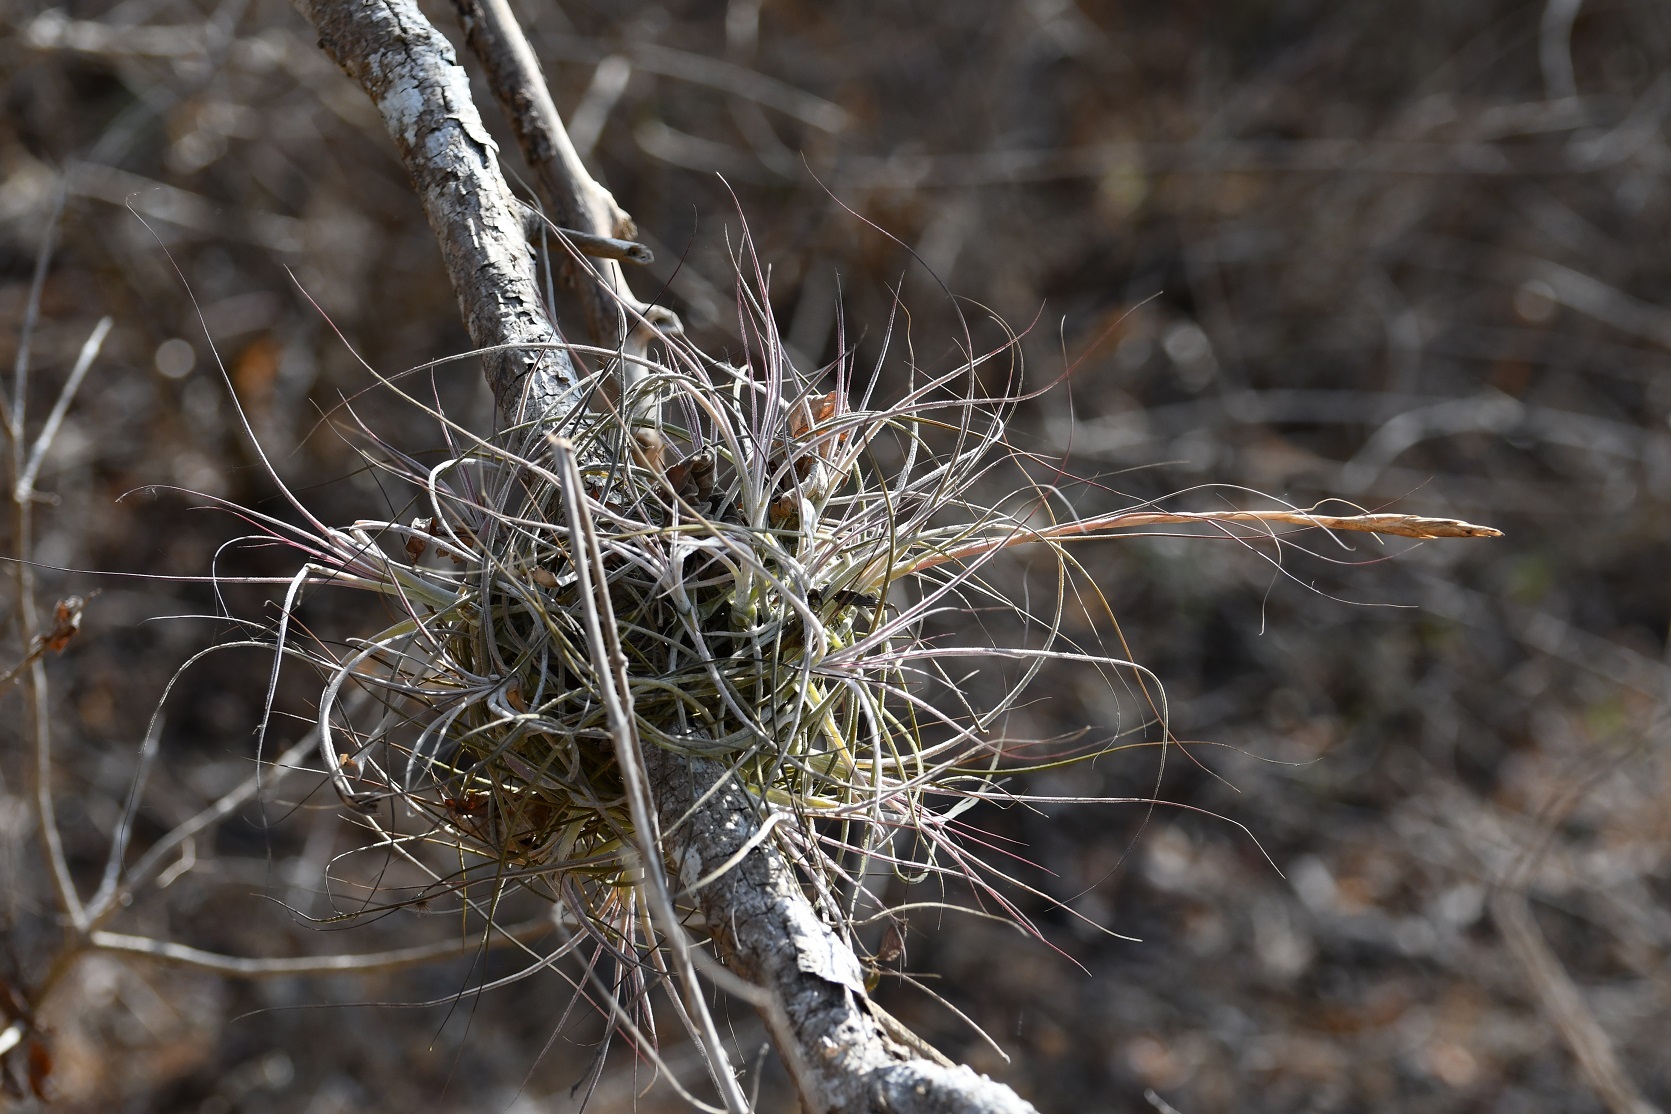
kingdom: Plantae
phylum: Tracheophyta
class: Liliopsida
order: Poales
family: Bromeliaceae
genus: Tillandsia
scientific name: Tillandsia schiedeana
